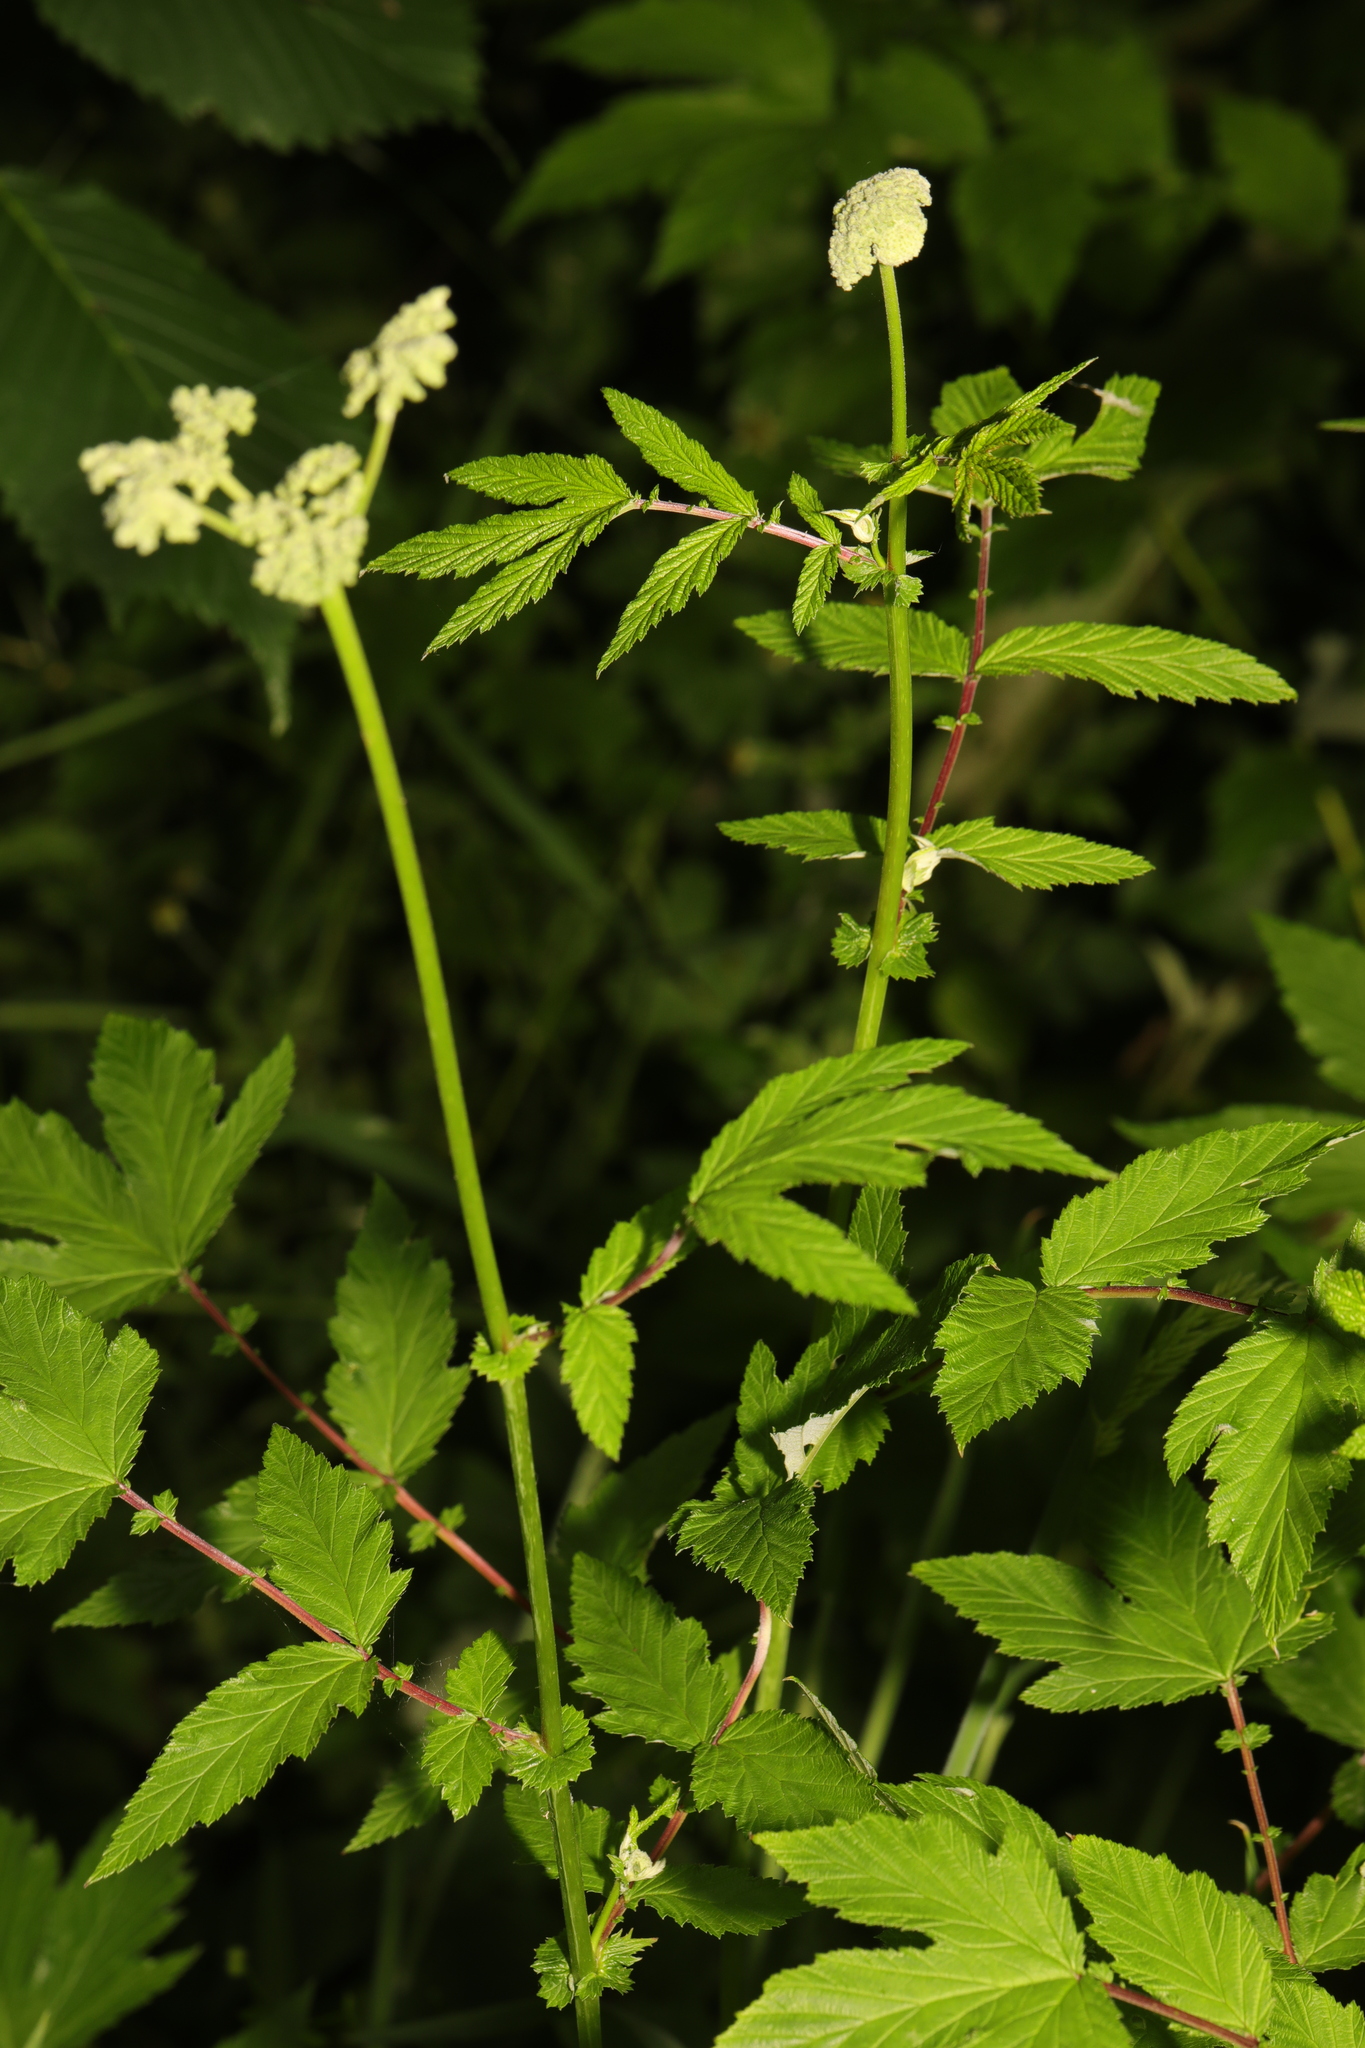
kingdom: Plantae
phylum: Tracheophyta
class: Magnoliopsida
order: Rosales
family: Rosaceae
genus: Filipendula
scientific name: Filipendula ulmaria
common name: Meadowsweet
